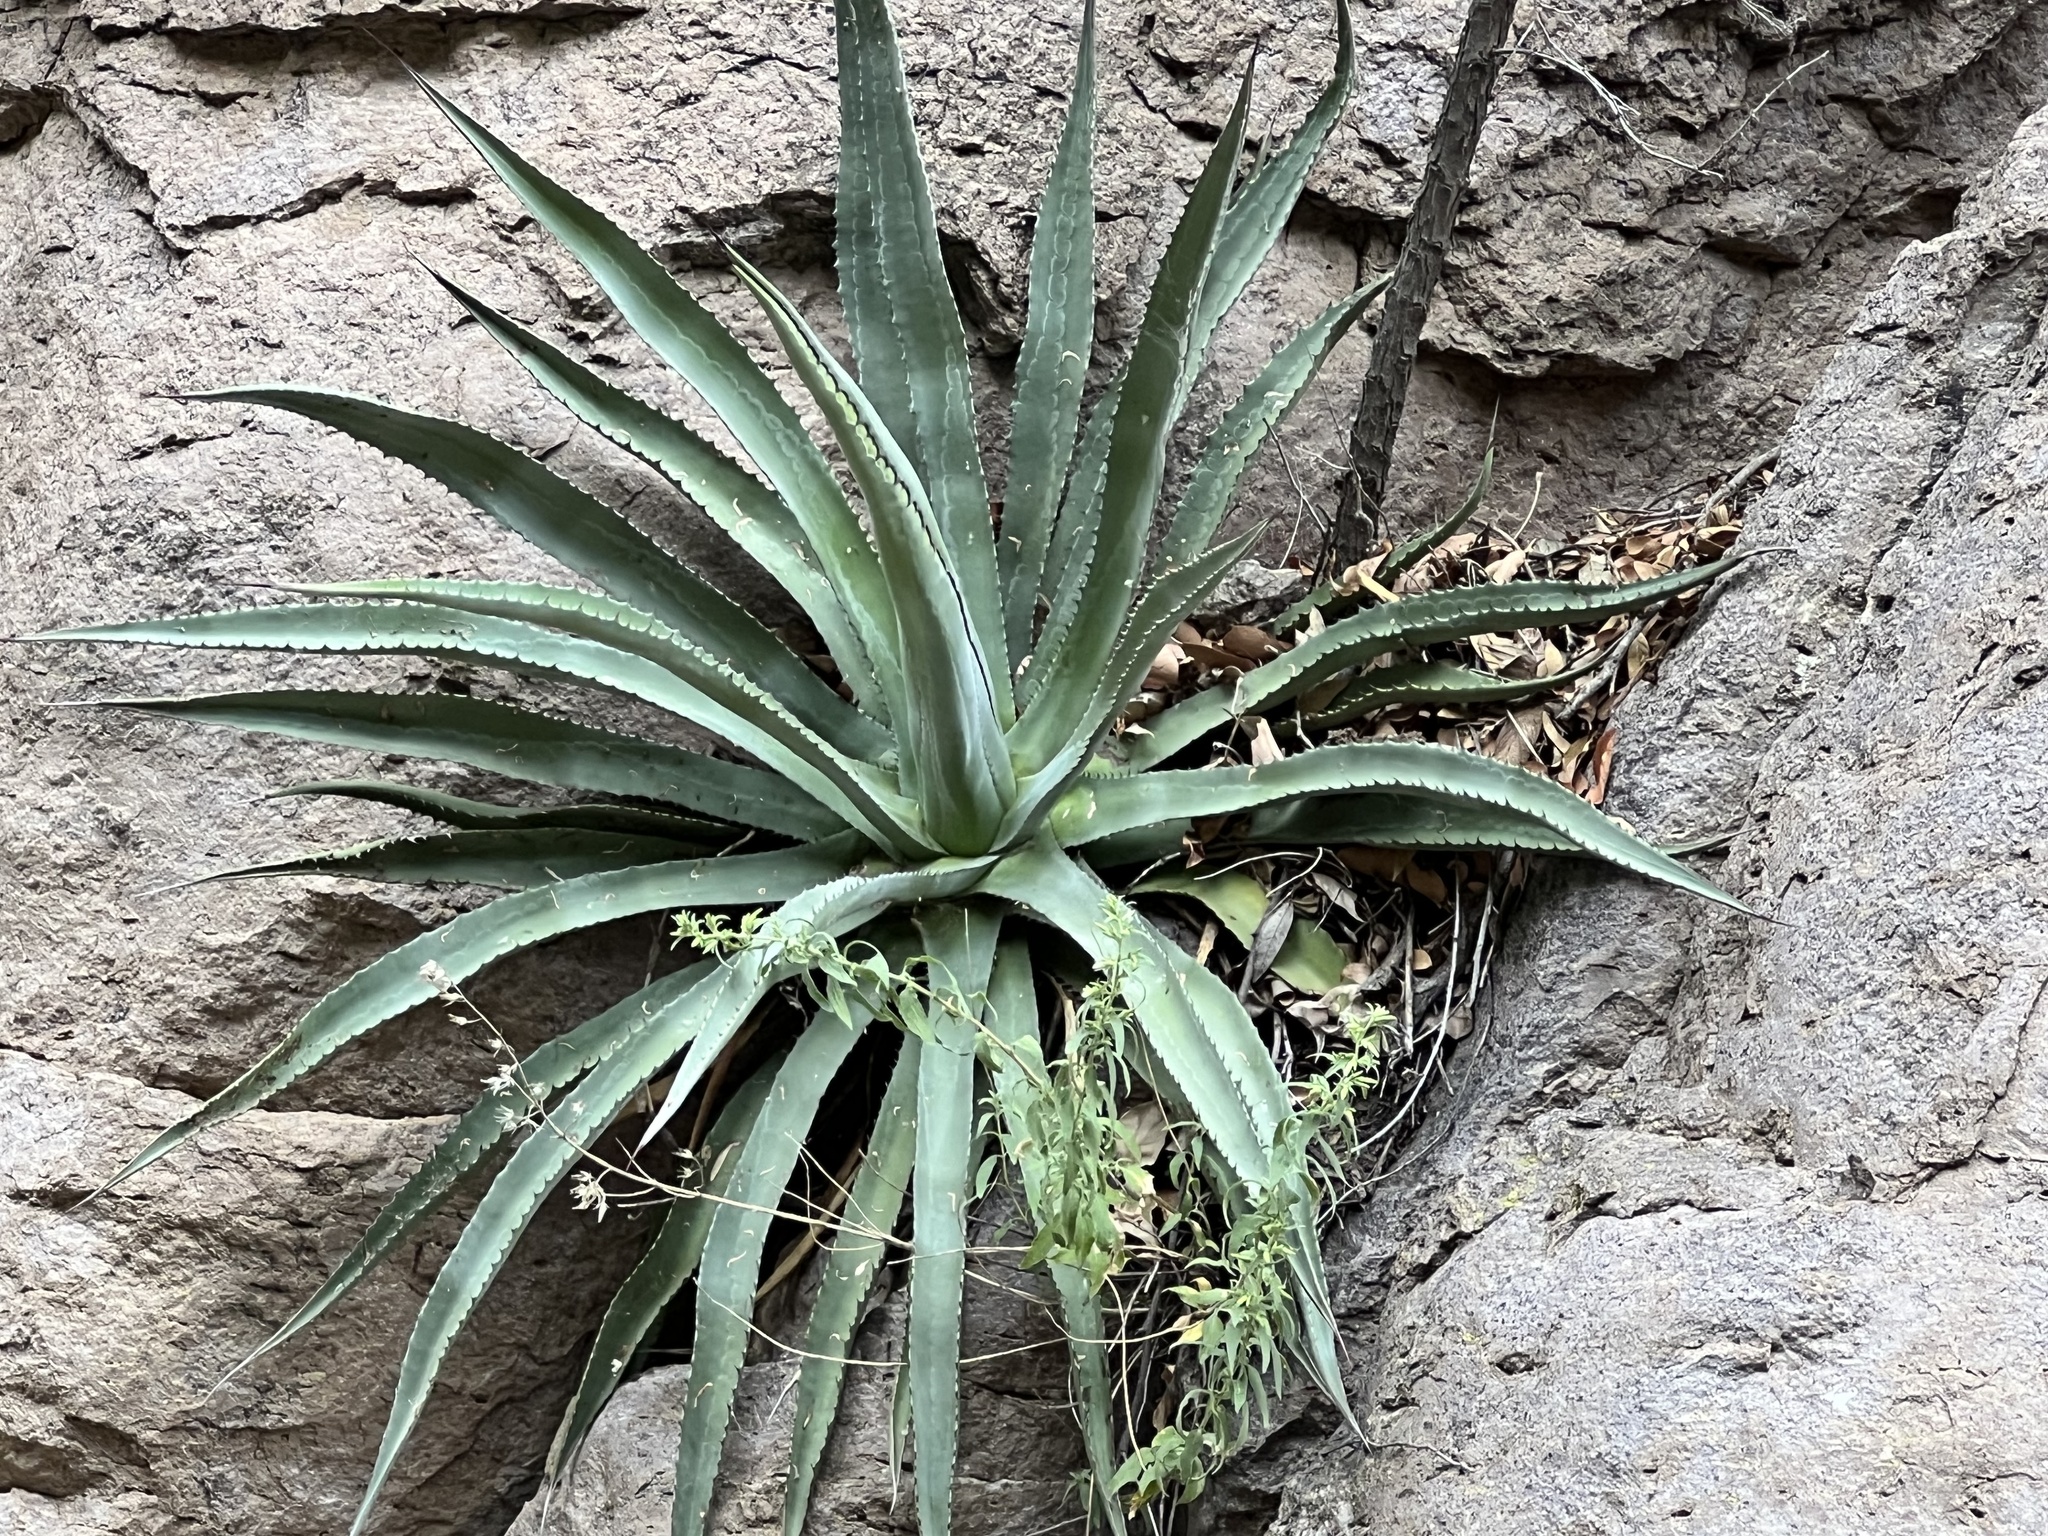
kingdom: Plantae
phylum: Tracheophyta
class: Liliopsida
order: Asparagales
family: Asparagaceae
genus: Agave
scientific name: Agave palmeri
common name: Palmer agave
